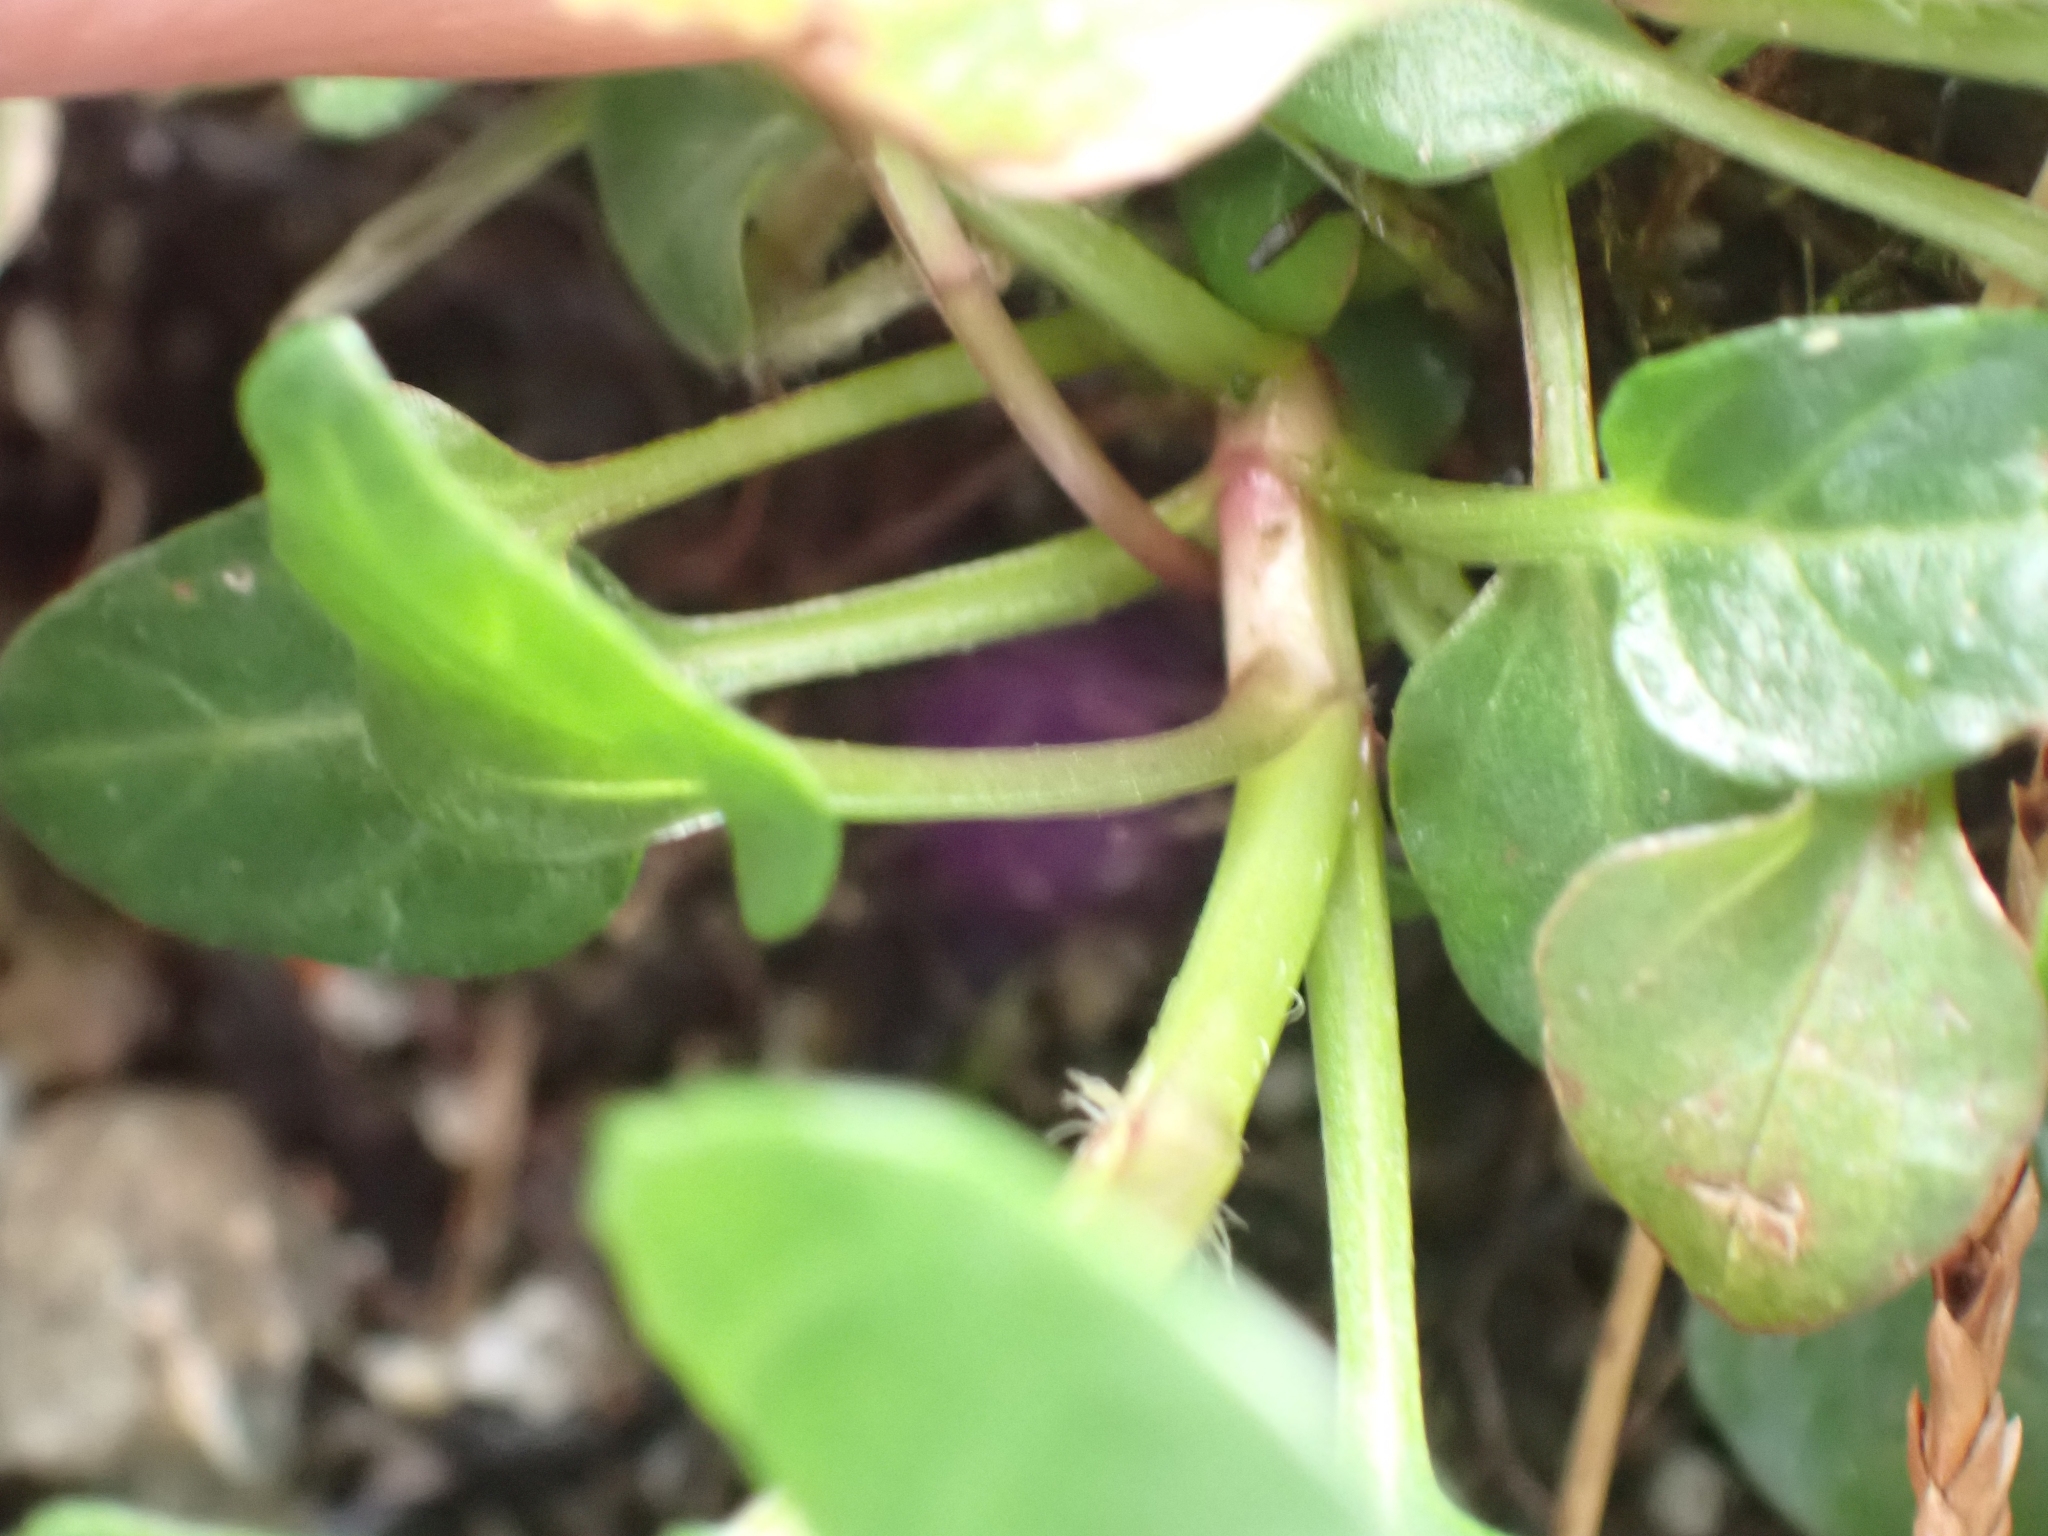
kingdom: Plantae
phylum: Tracheophyta
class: Magnoliopsida
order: Lamiales
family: Lamiaceae
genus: Prunella
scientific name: Prunella vulgaris
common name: Heal-all
